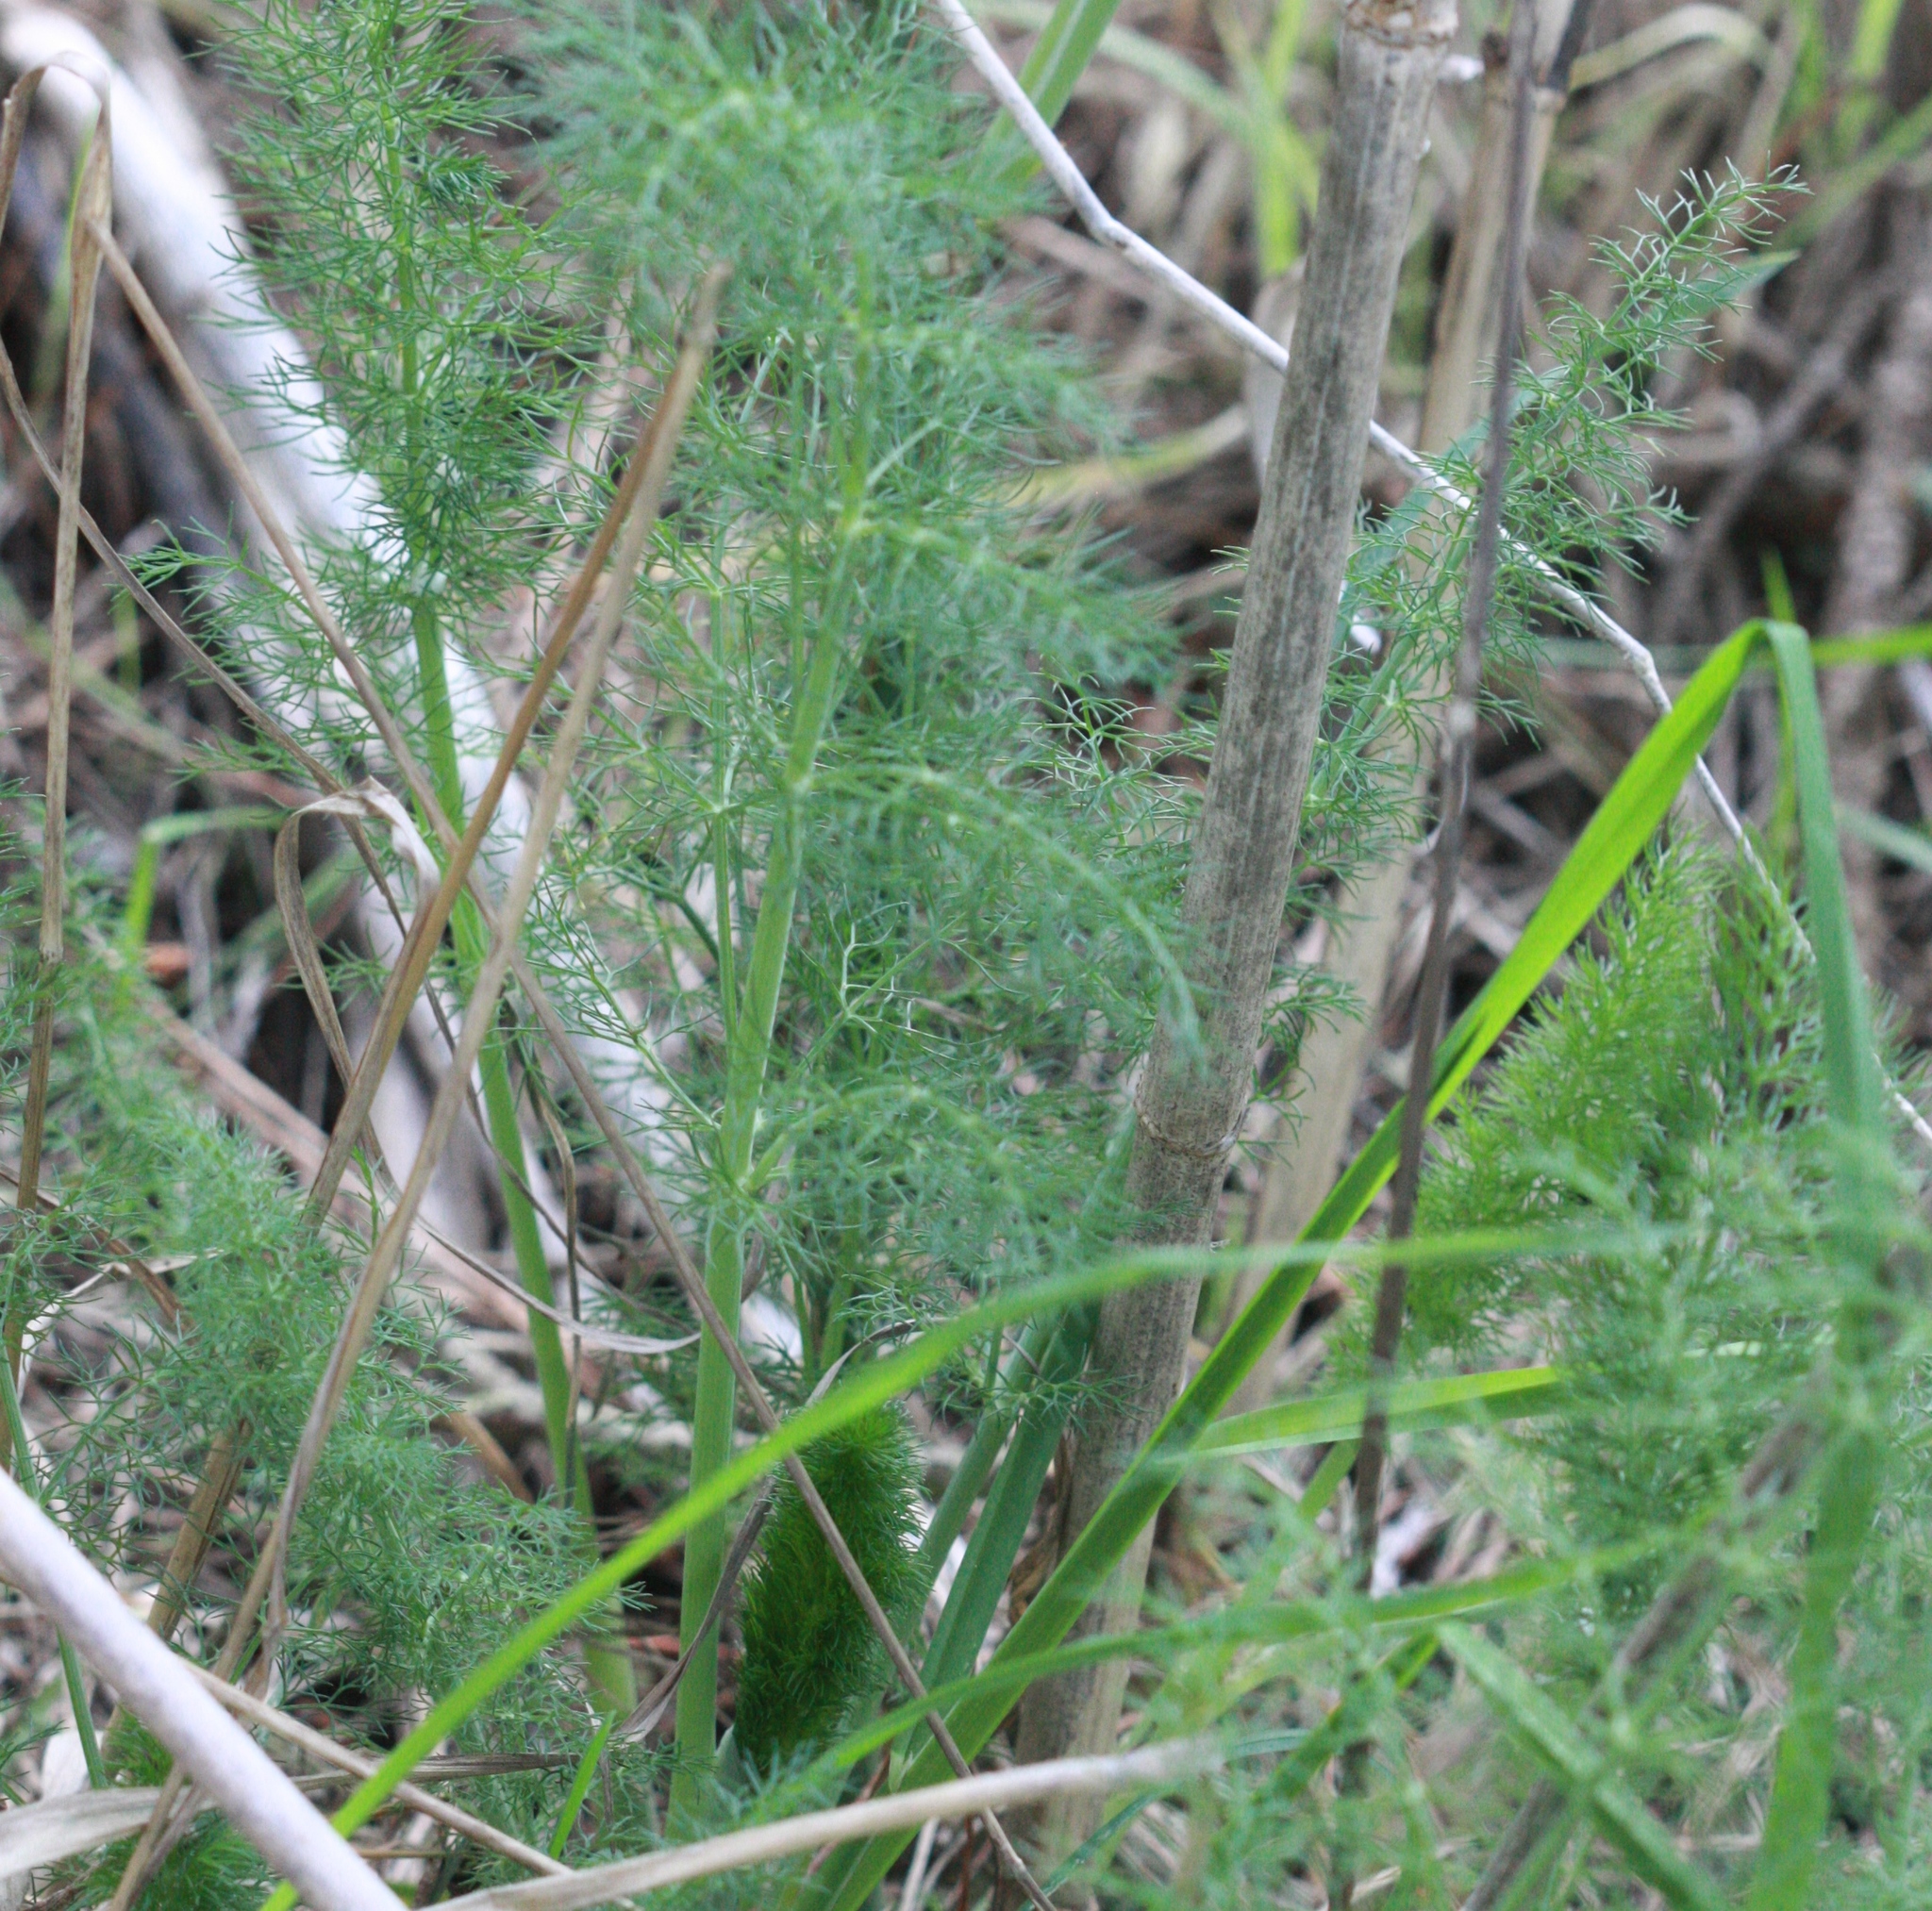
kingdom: Plantae
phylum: Tracheophyta
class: Magnoliopsida
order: Apiales
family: Apiaceae
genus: Foeniculum
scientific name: Foeniculum vulgare
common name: Fennel
